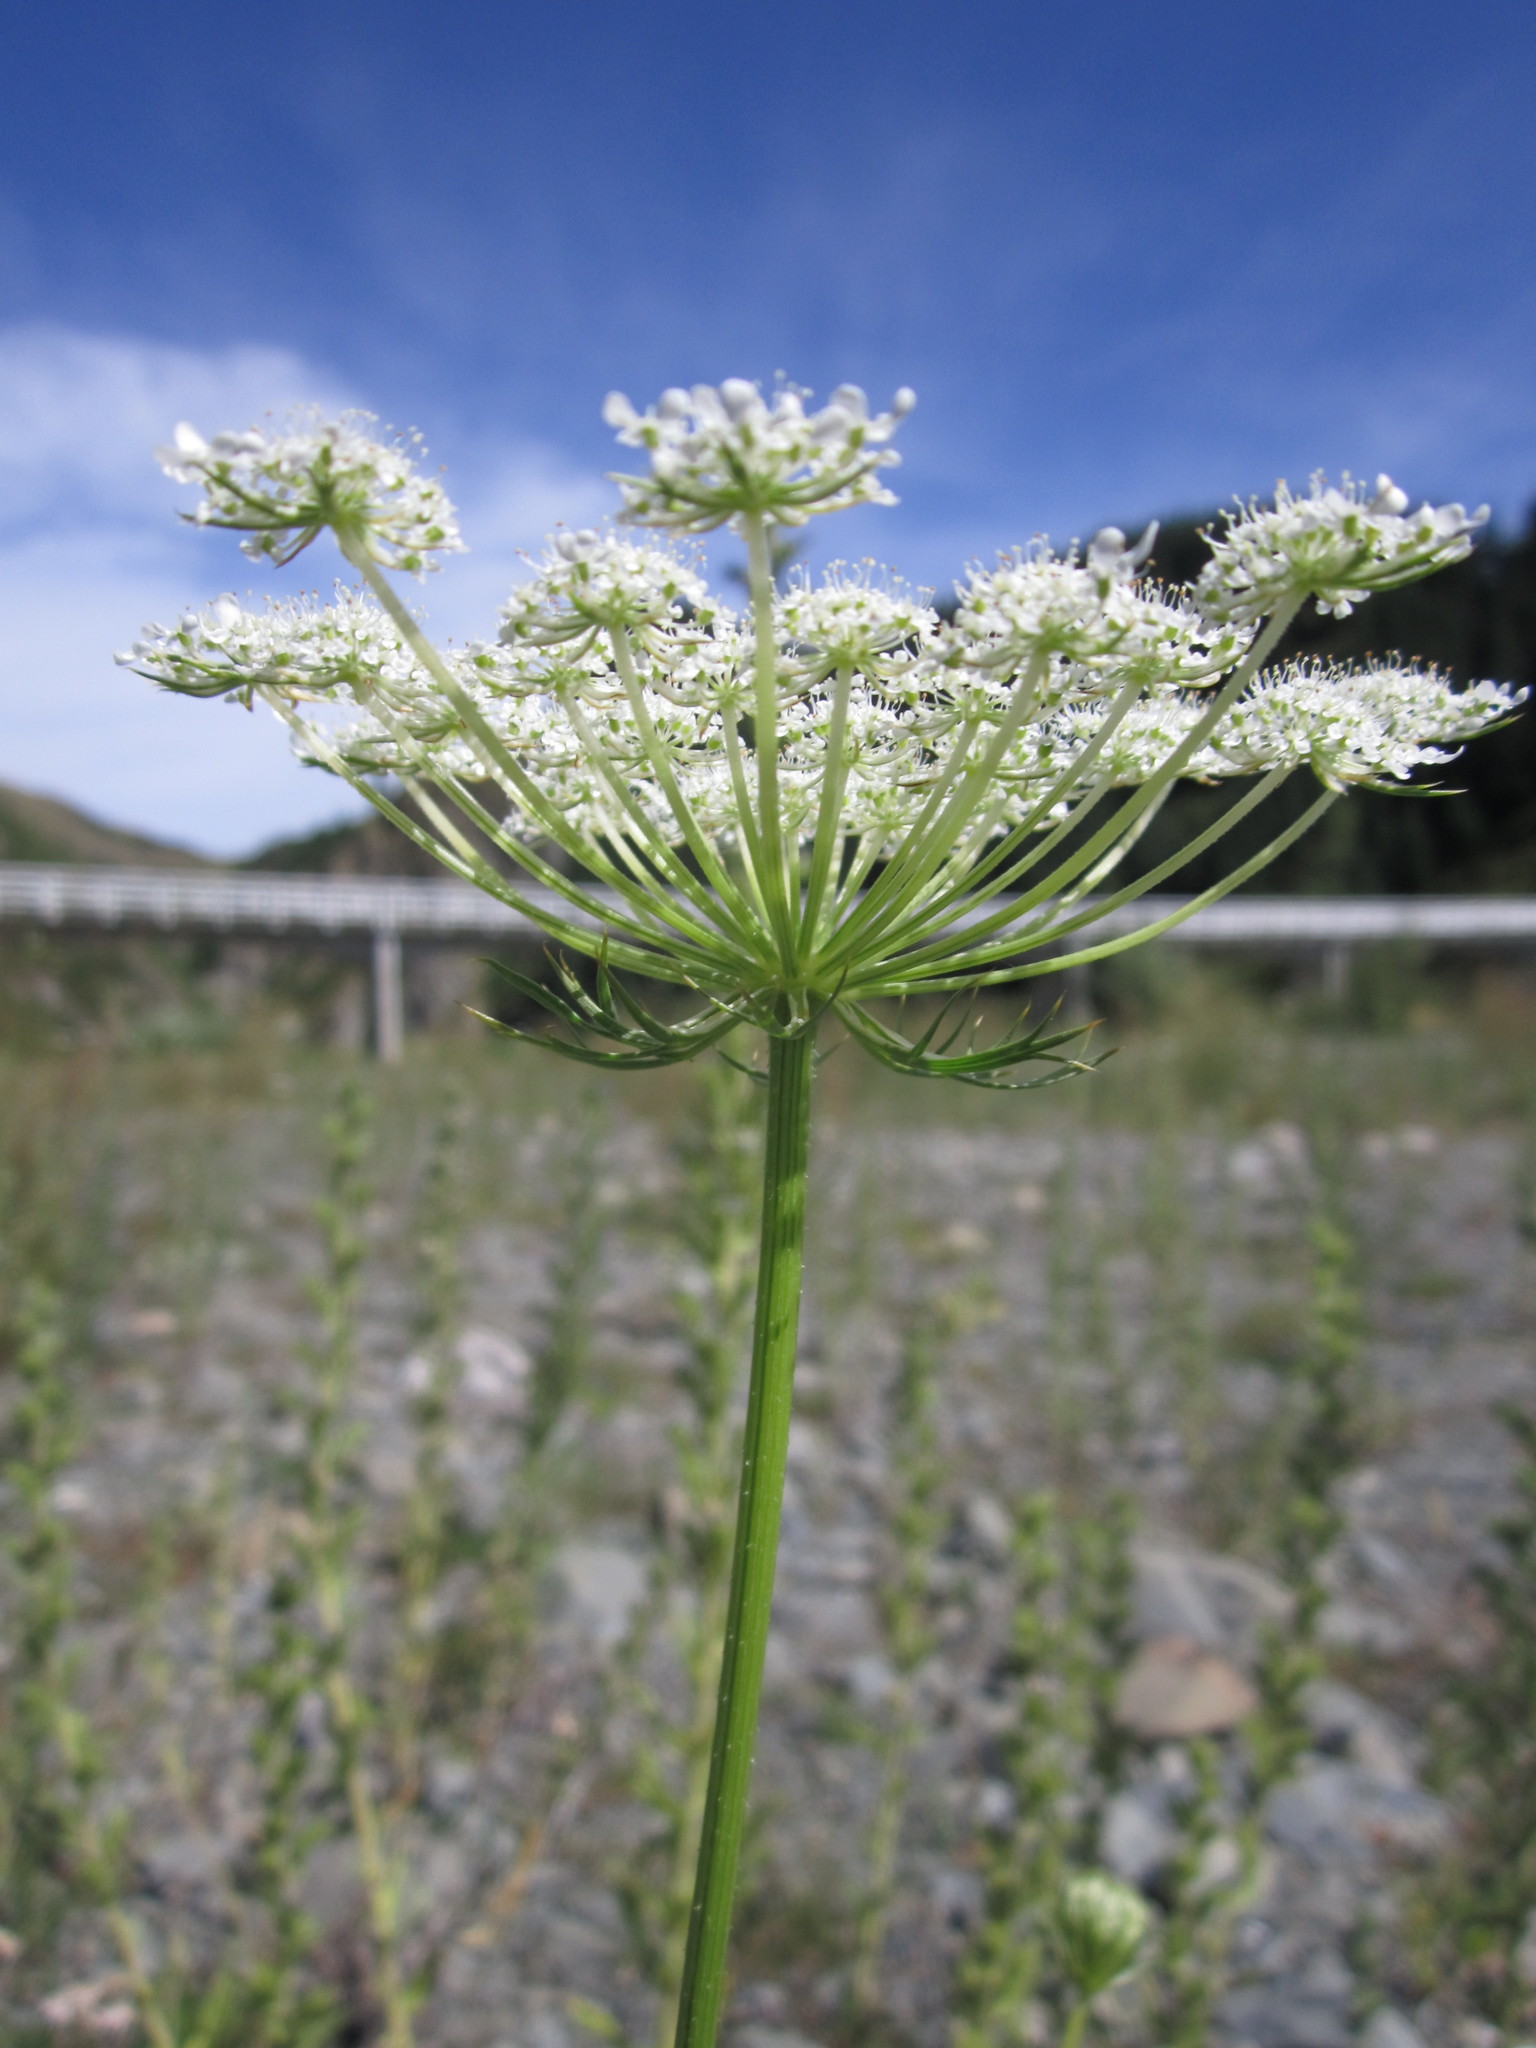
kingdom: Plantae
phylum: Tracheophyta
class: Magnoliopsida
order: Apiales
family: Apiaceae
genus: Daucus
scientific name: Daucus carota
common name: Wild carrot
